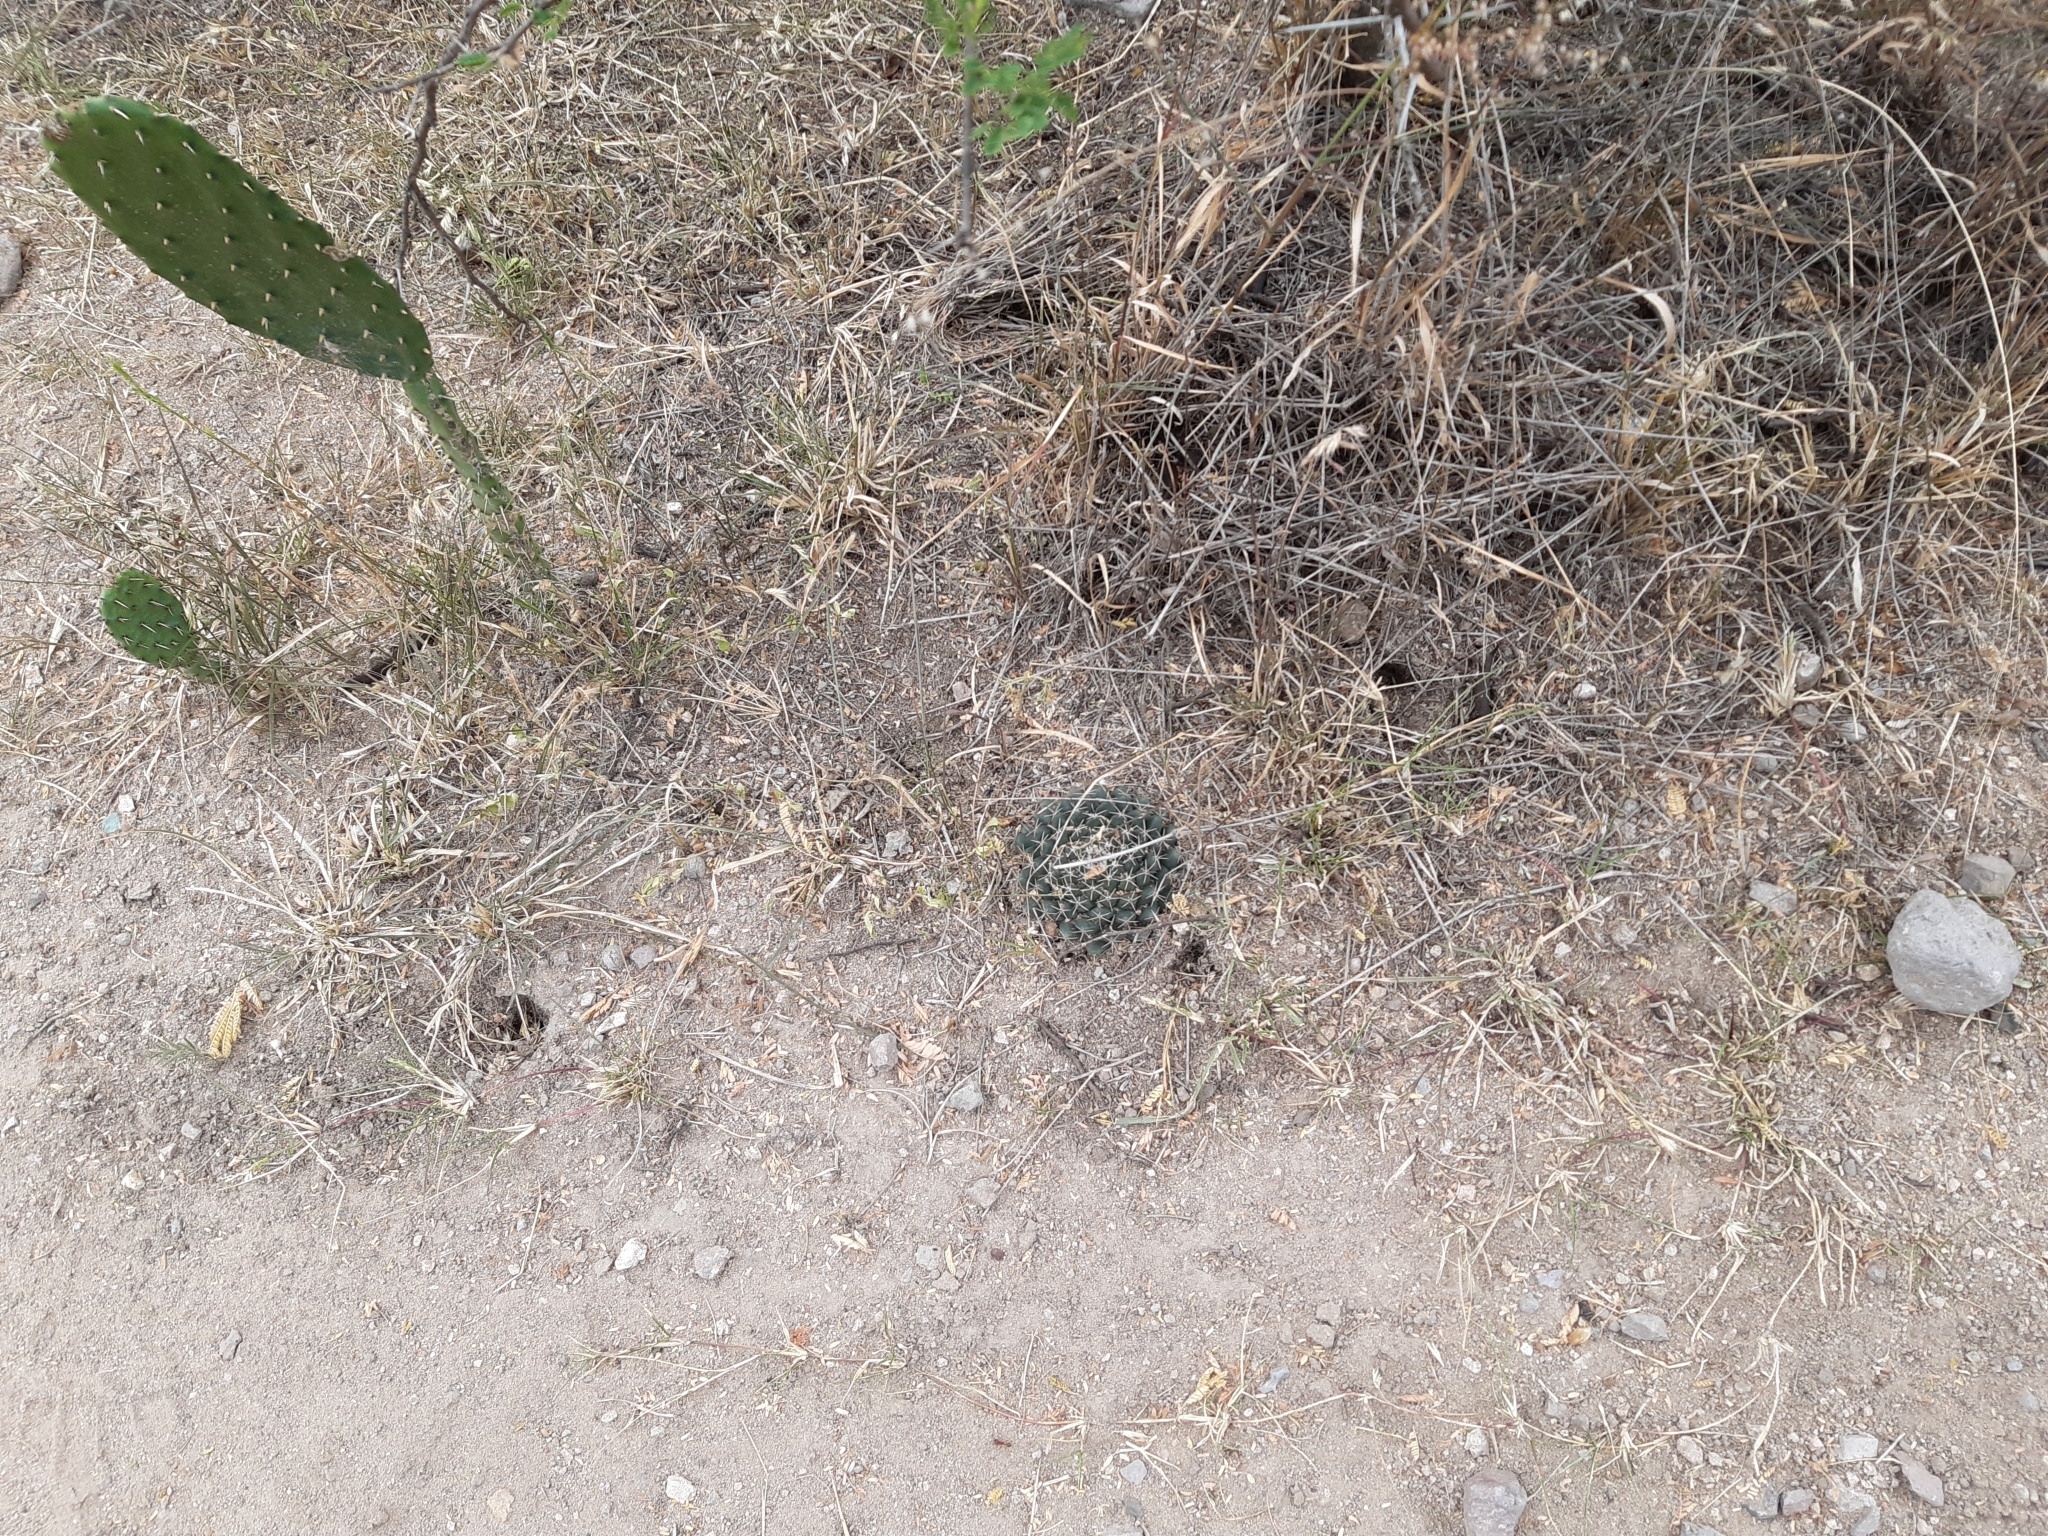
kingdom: Plantae
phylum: Tracheophyta
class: Magnoliopsida
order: Caryophyllales
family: Cactaceae
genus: Mammillaria
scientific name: Mammillaria uncinata
